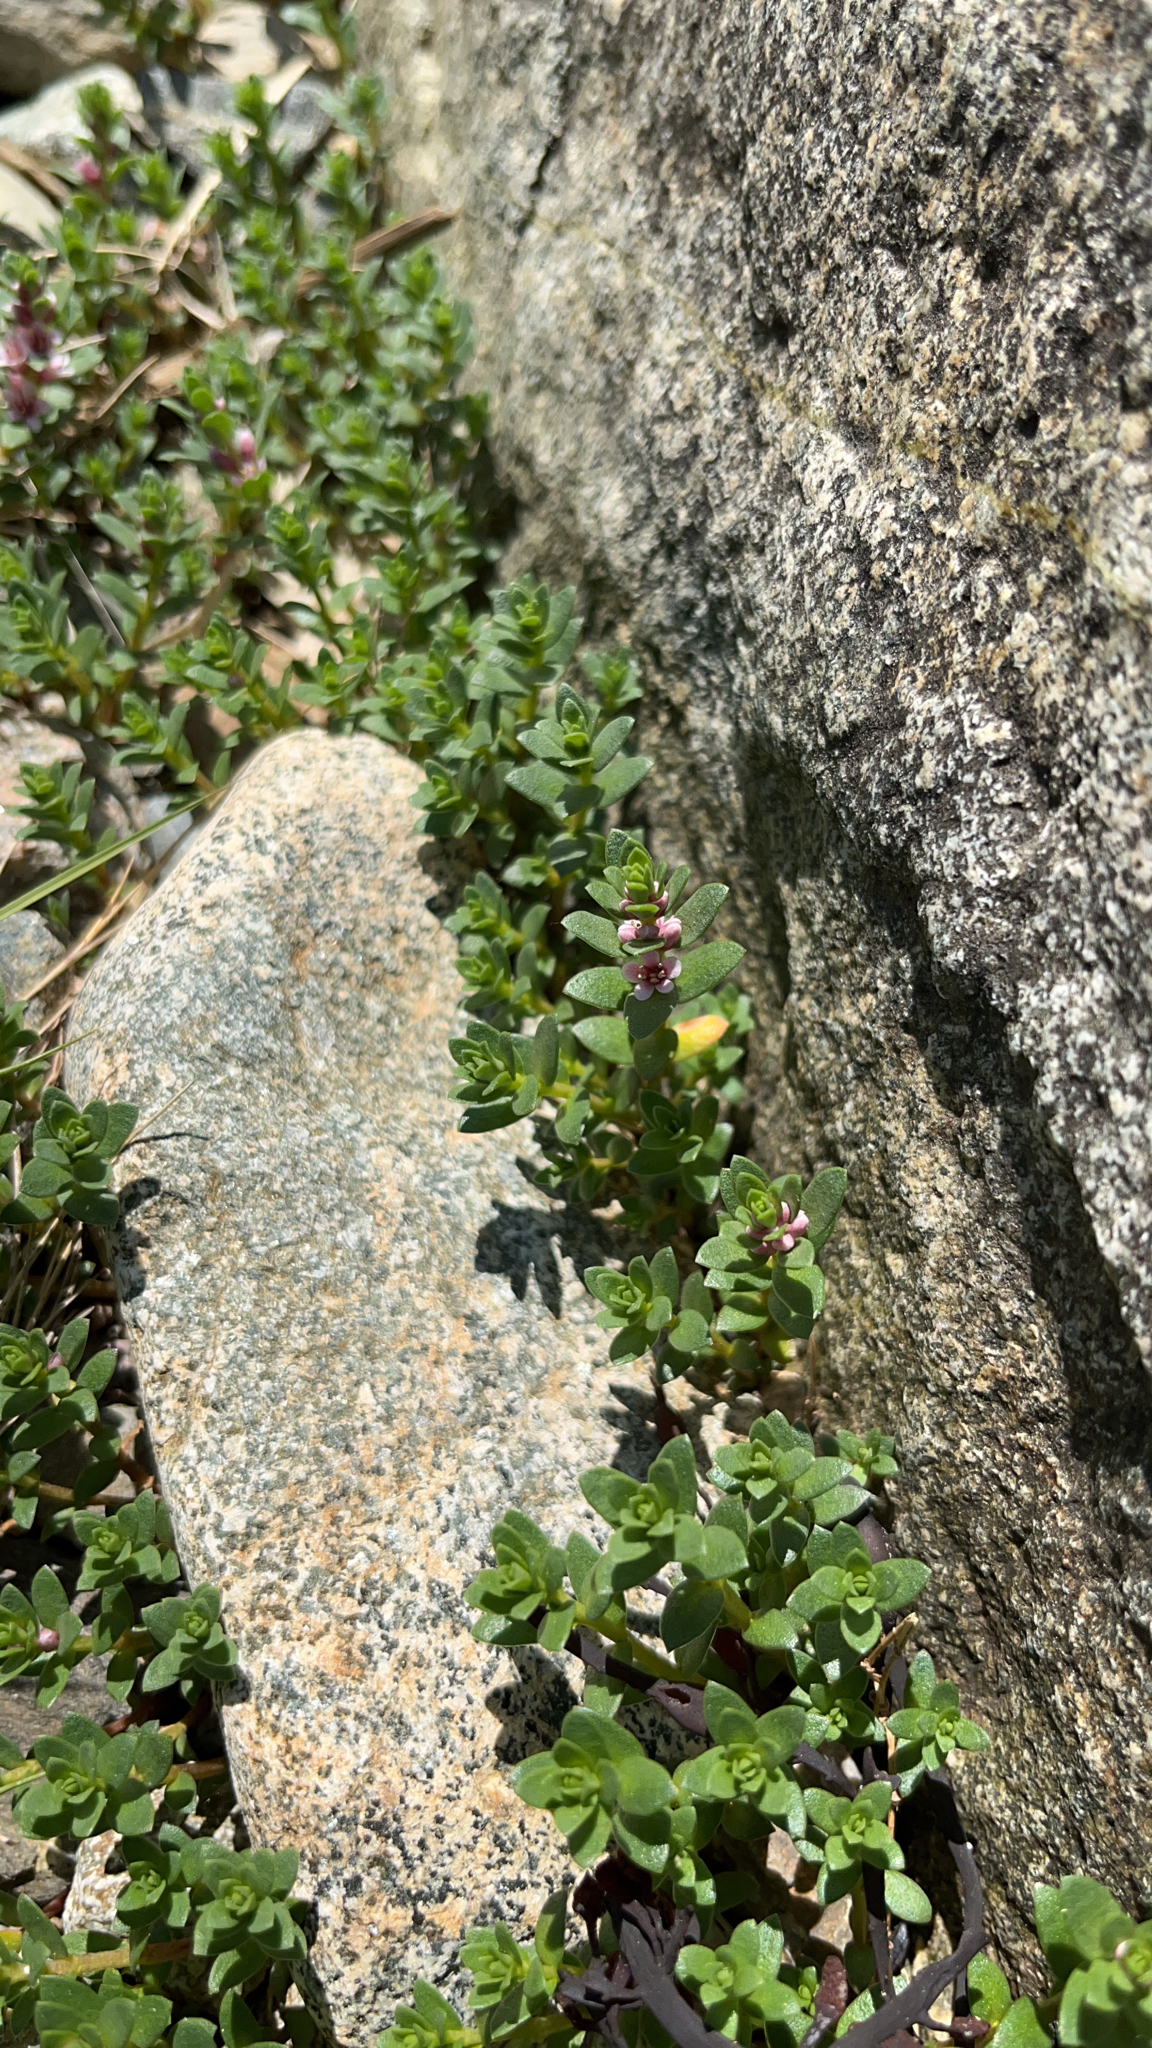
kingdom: Plantae
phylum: Tracheophyta
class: Magnoliopsida
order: Ericales
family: Primulaceae
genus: Lysimachia
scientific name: Lysimachia maritima
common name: Sea milkwort
